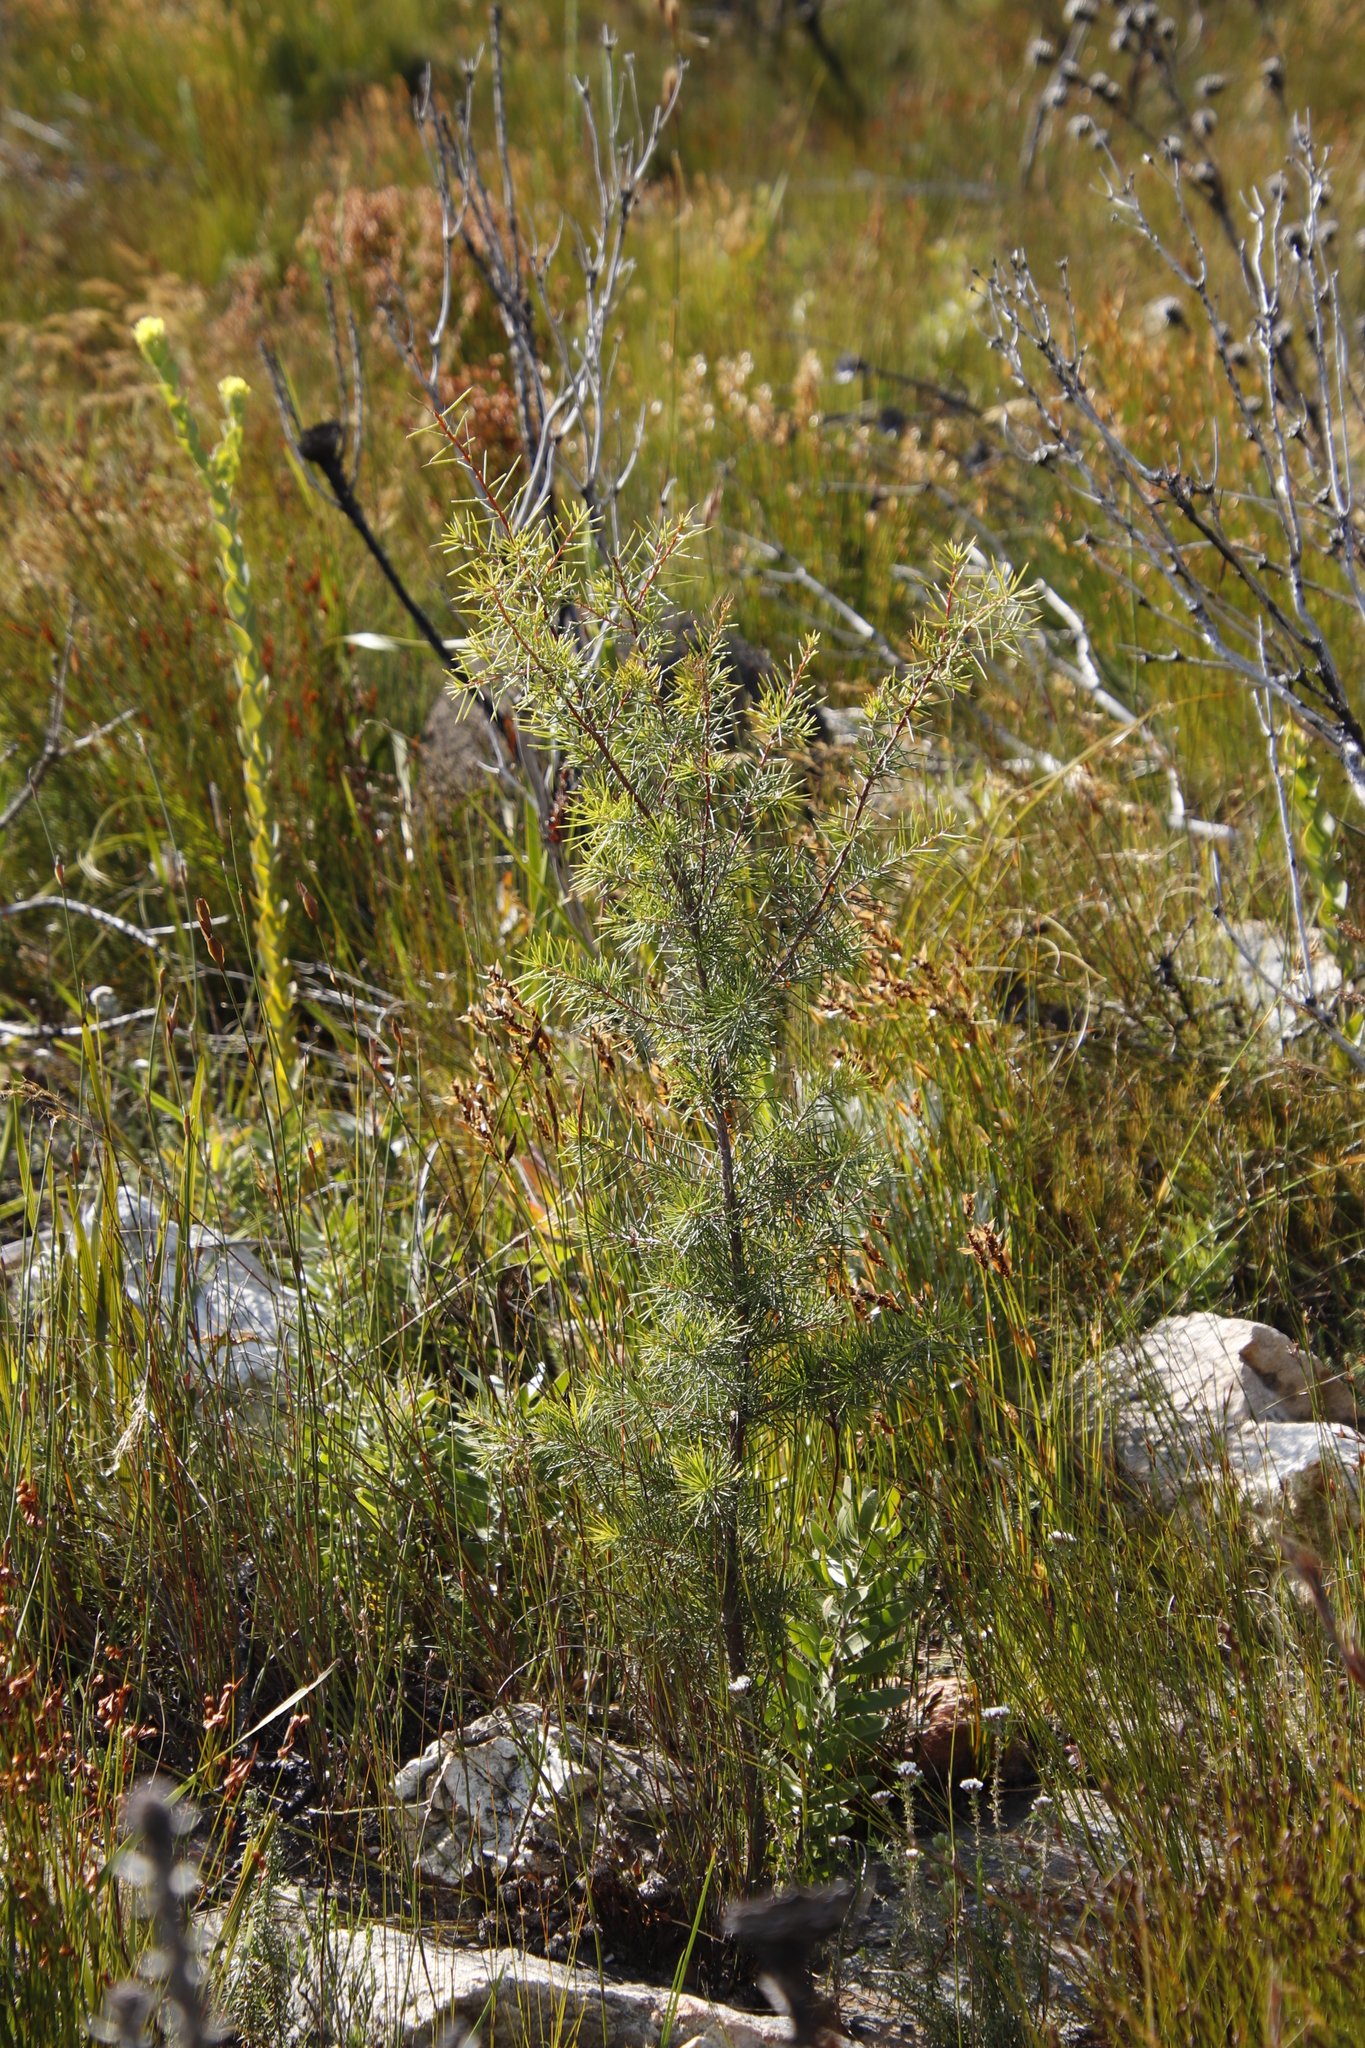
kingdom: Plantae
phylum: Tracheophyta
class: Magnoliopsida
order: Proteales
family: Proteaceae
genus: Hakea
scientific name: Hakea sericea
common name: Needle bush
